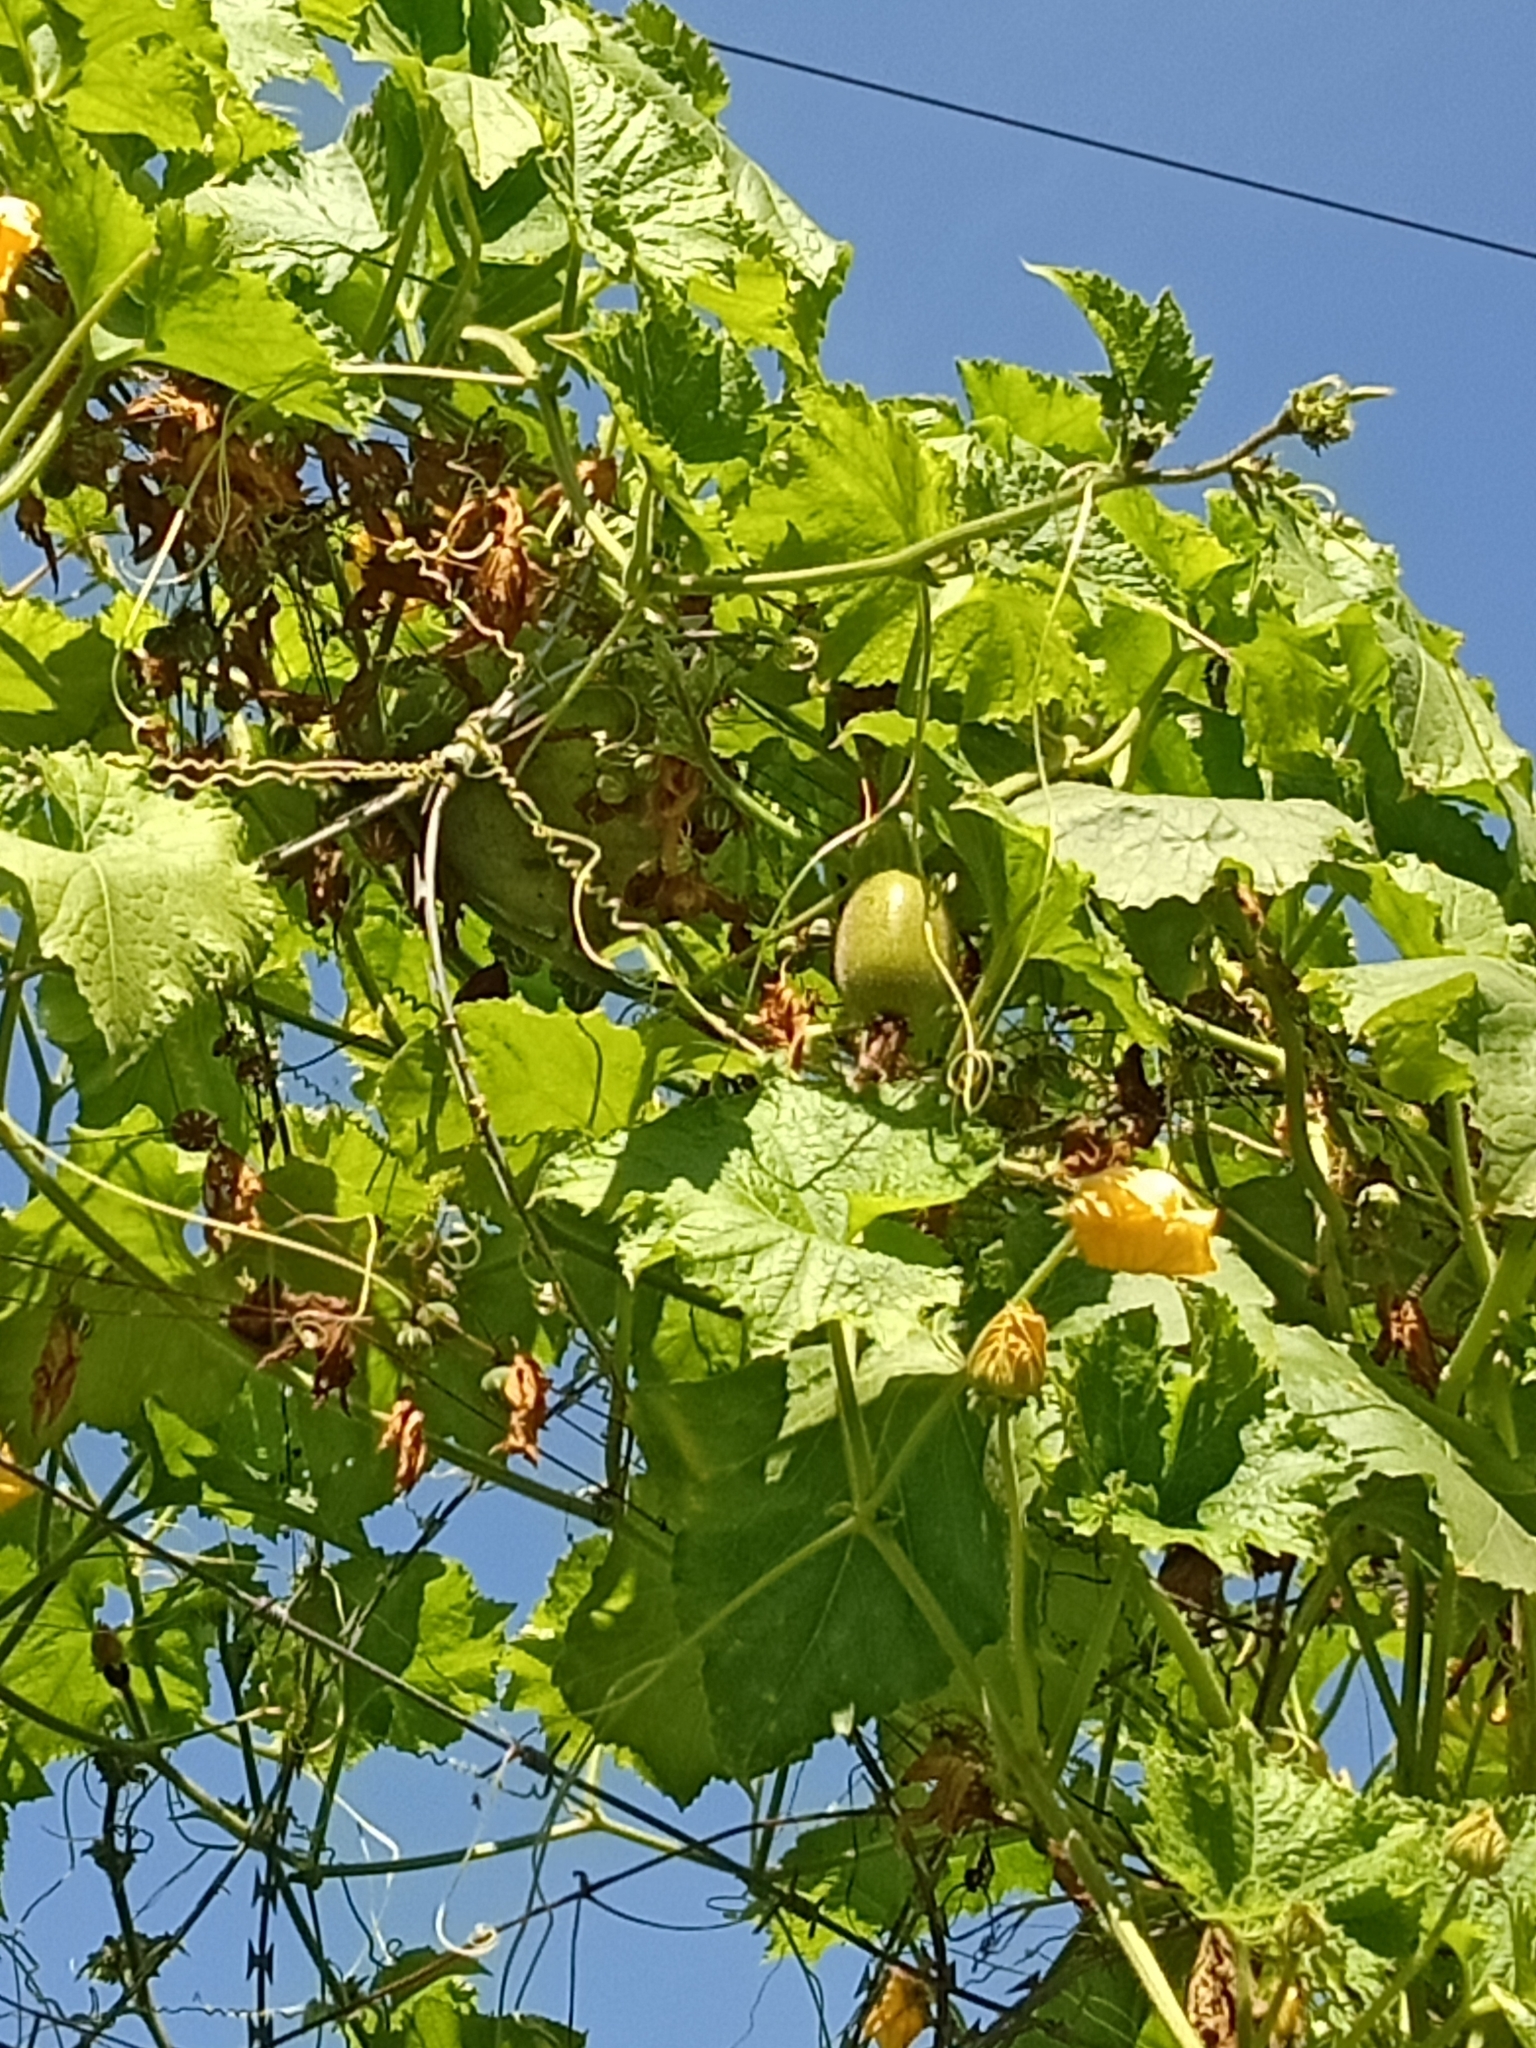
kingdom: Plantae
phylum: Tracheophyta
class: Magnoliopsida
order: Cucurbitales
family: Cucurbitaceae
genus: Benincasa
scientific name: Benincasa hispida
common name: Chinese-watermelon
